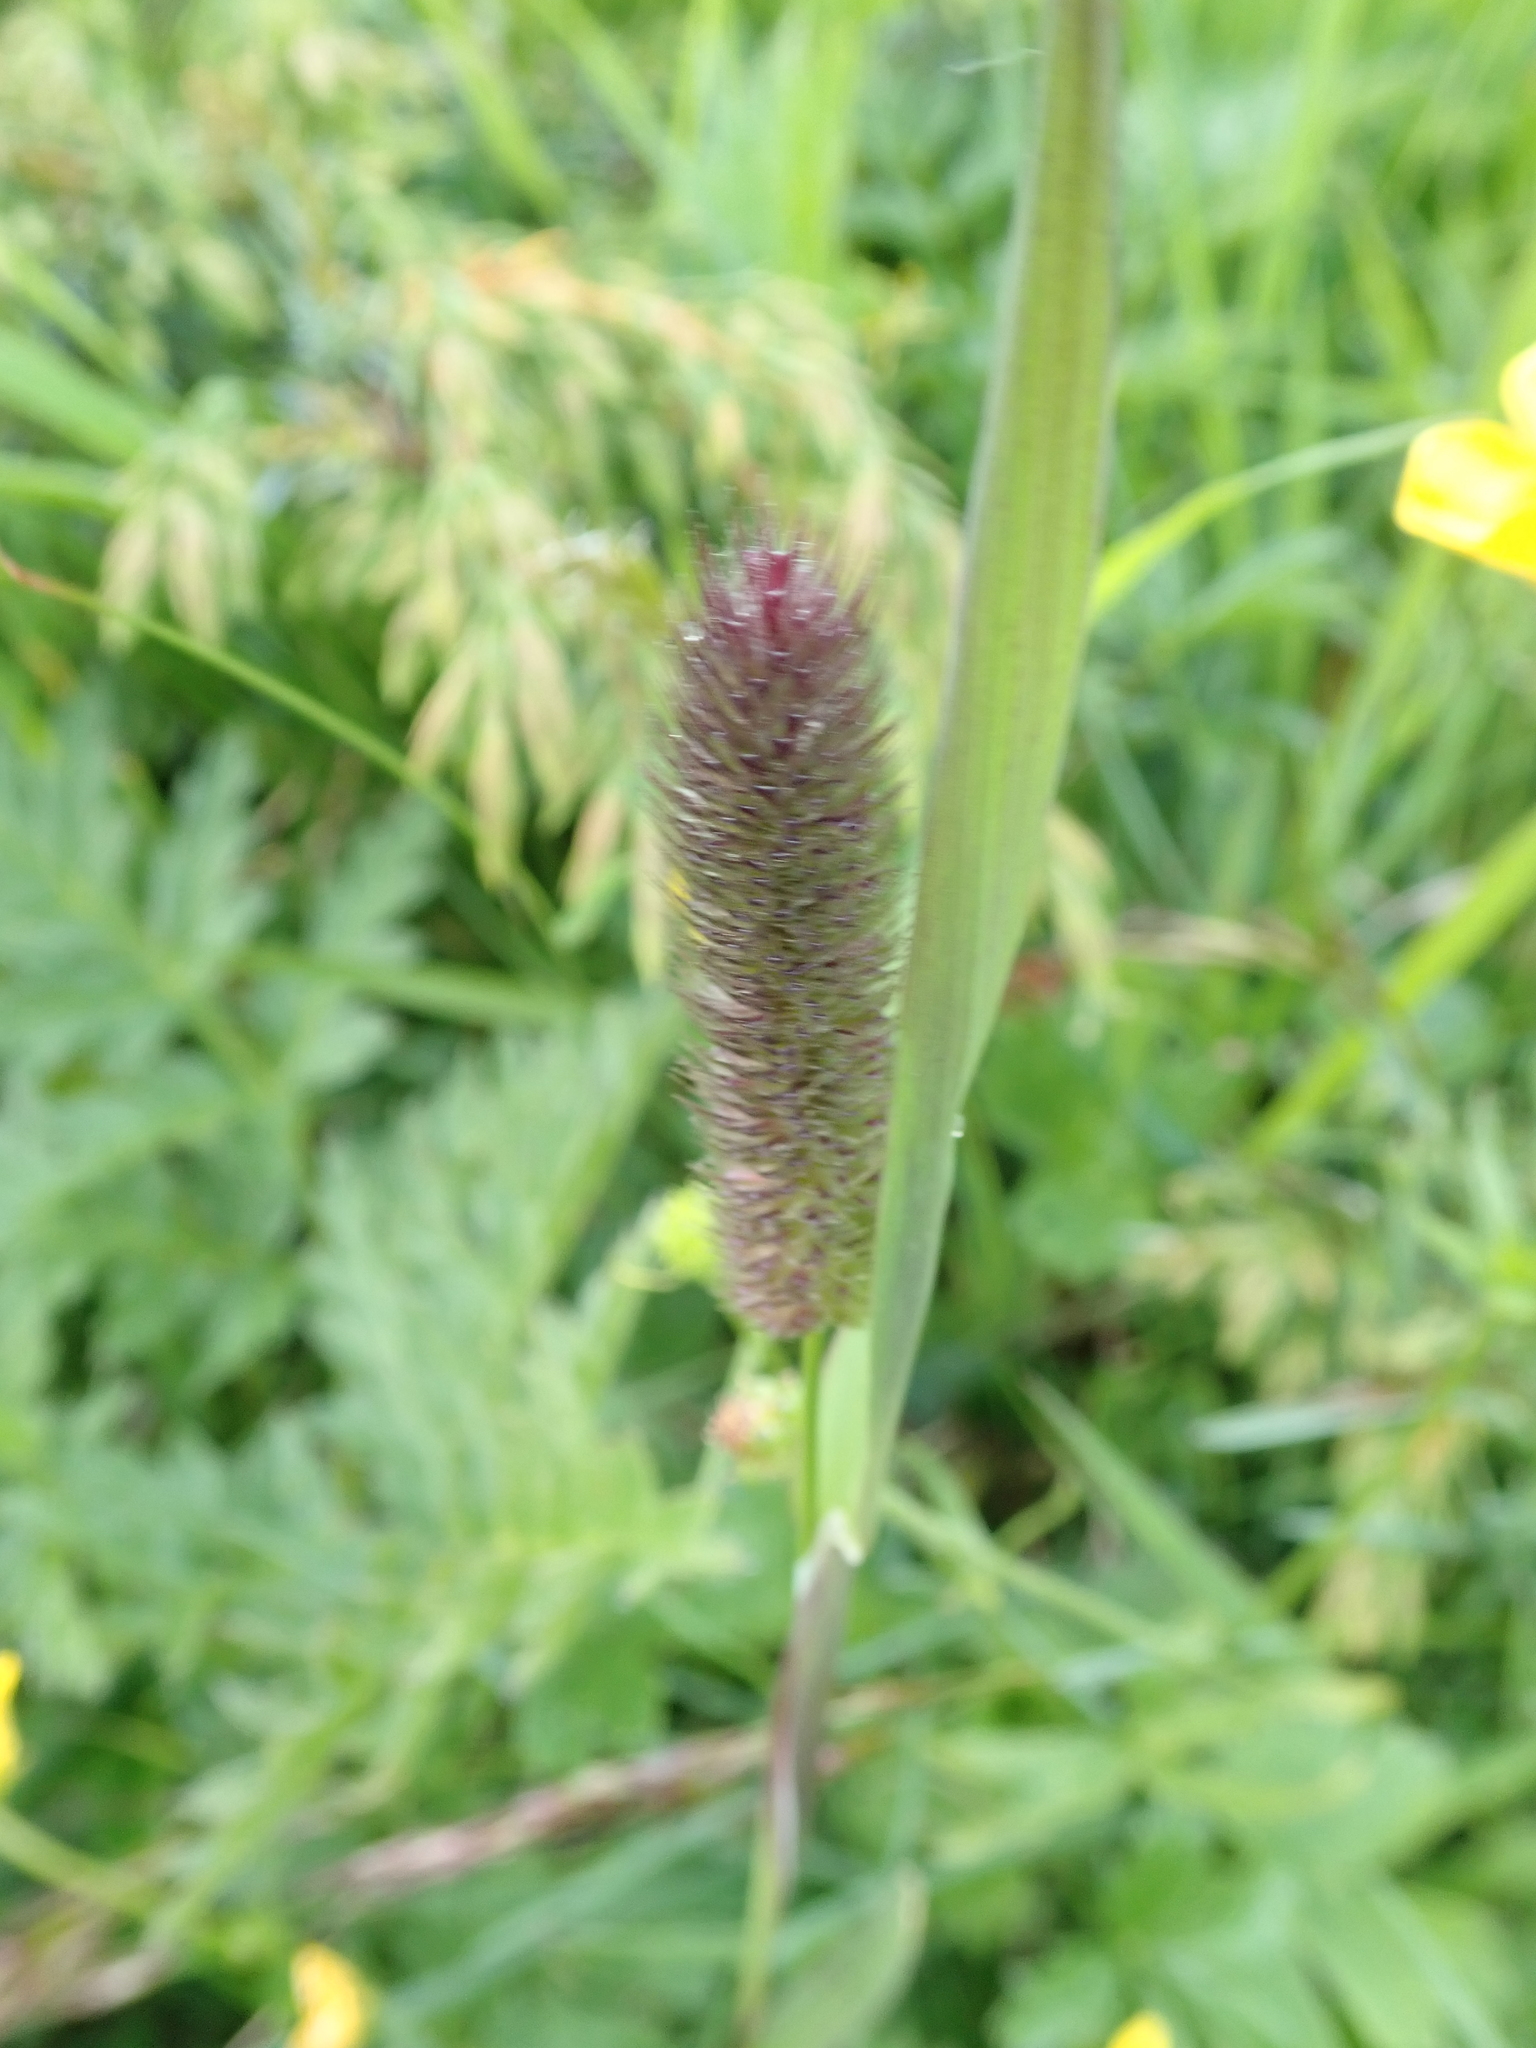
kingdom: Plantae
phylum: Tracheophyta
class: Liliopsida
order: Poales
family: Poaceae
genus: Phleum
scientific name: Phleum alpinum
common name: Alpine cat's-tail
